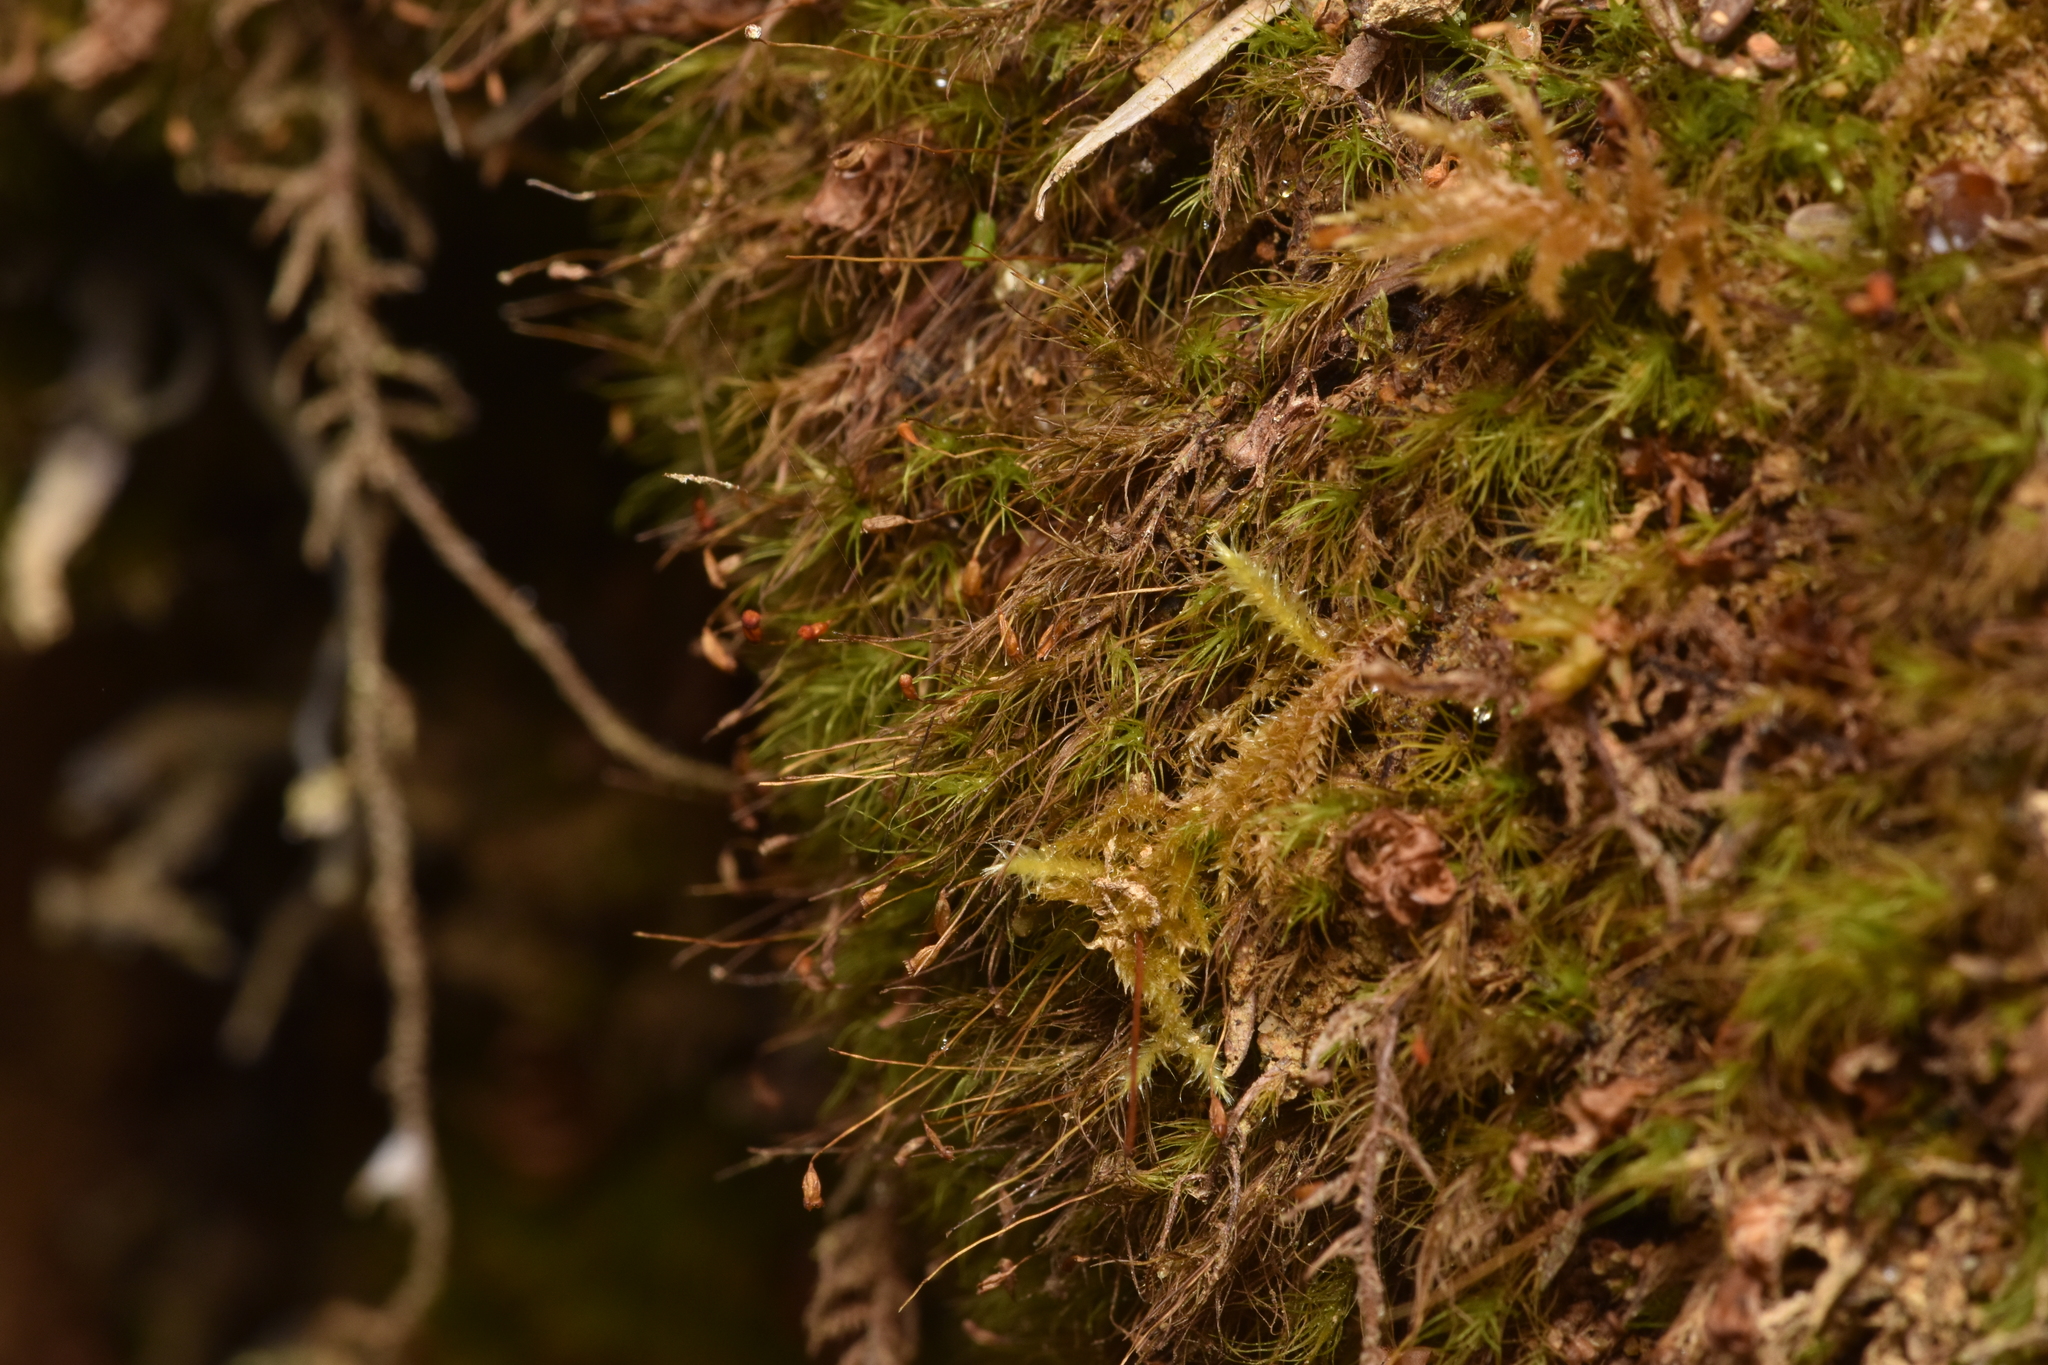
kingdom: Plantae
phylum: Bryophyta
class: Bryopsida
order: Dicranales
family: Dicranellaceae
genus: Dicranella
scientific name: Dicranella heteromalla
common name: Silky forklet moss
